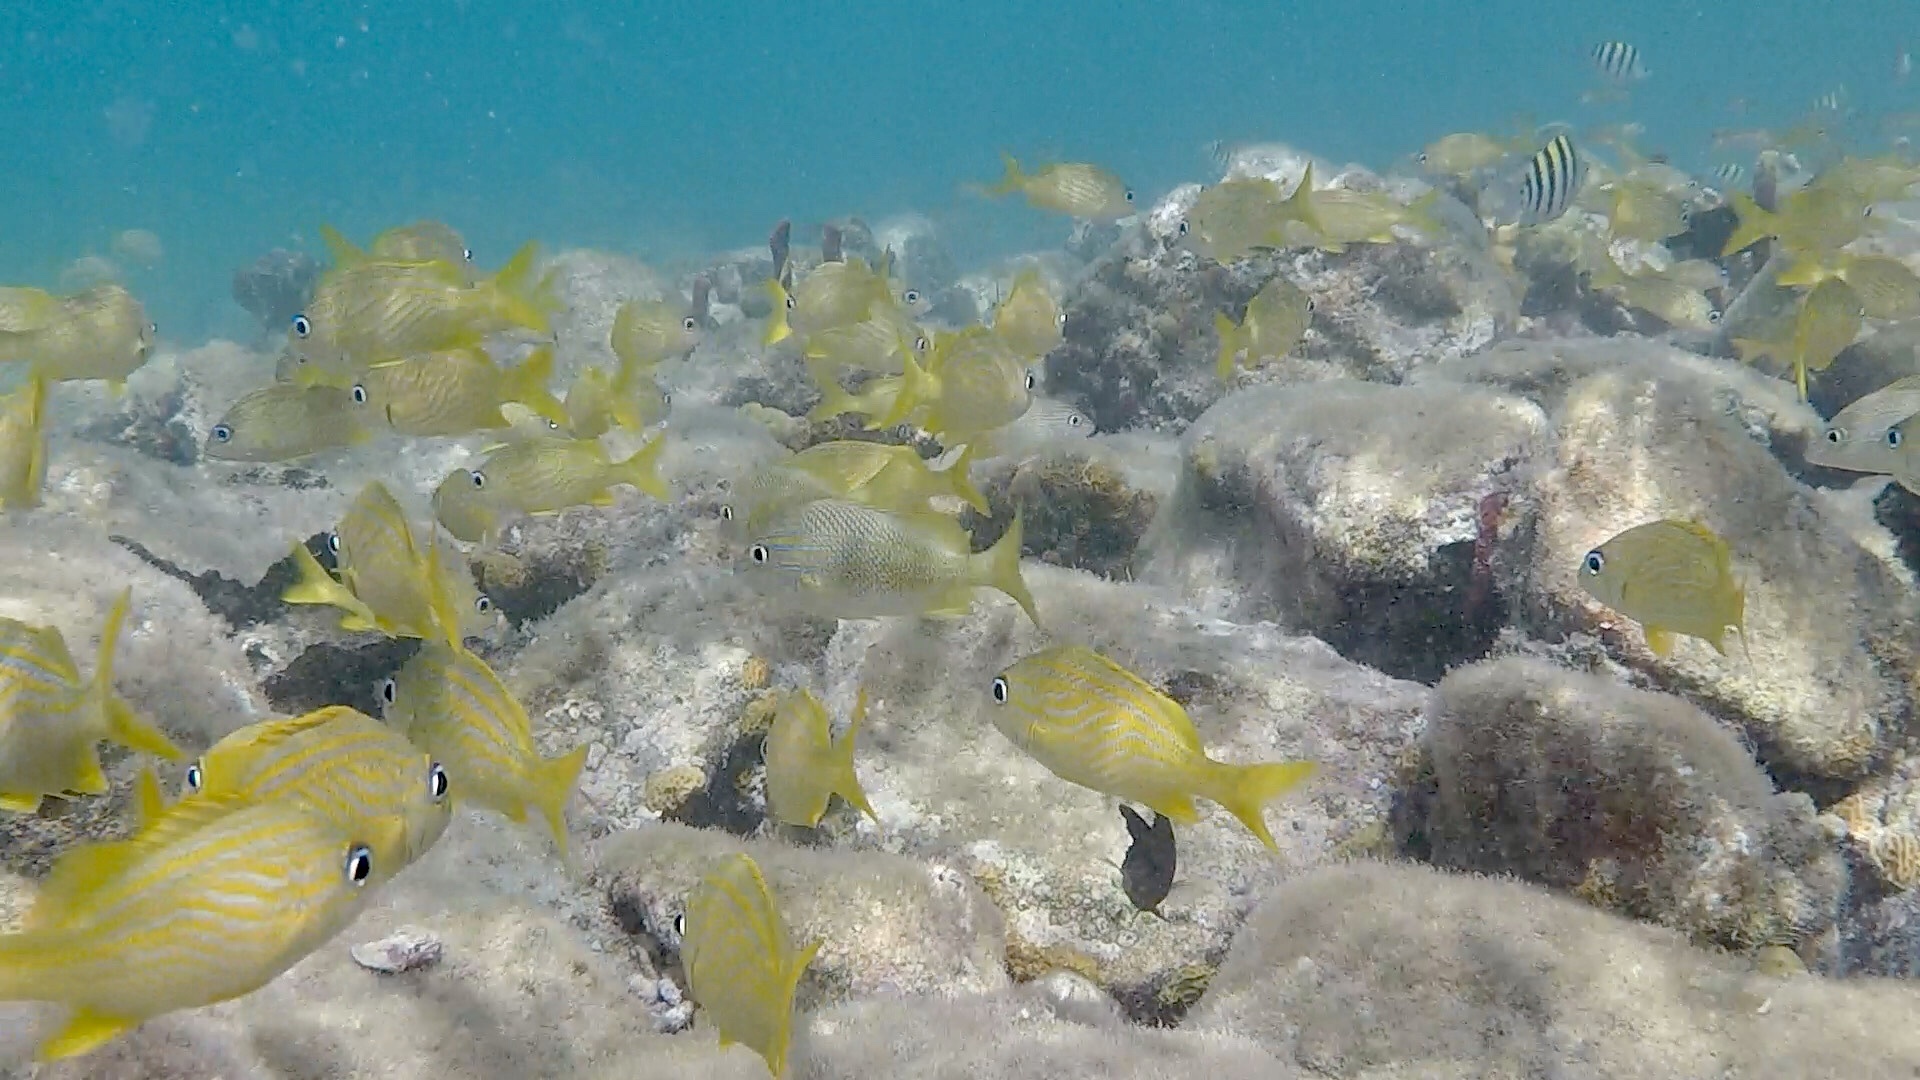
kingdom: Animalia
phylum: Chordata
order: Perciformes
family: Haemulidae
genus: Haemulon
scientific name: Haemulon flavolineatum
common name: French grunt
